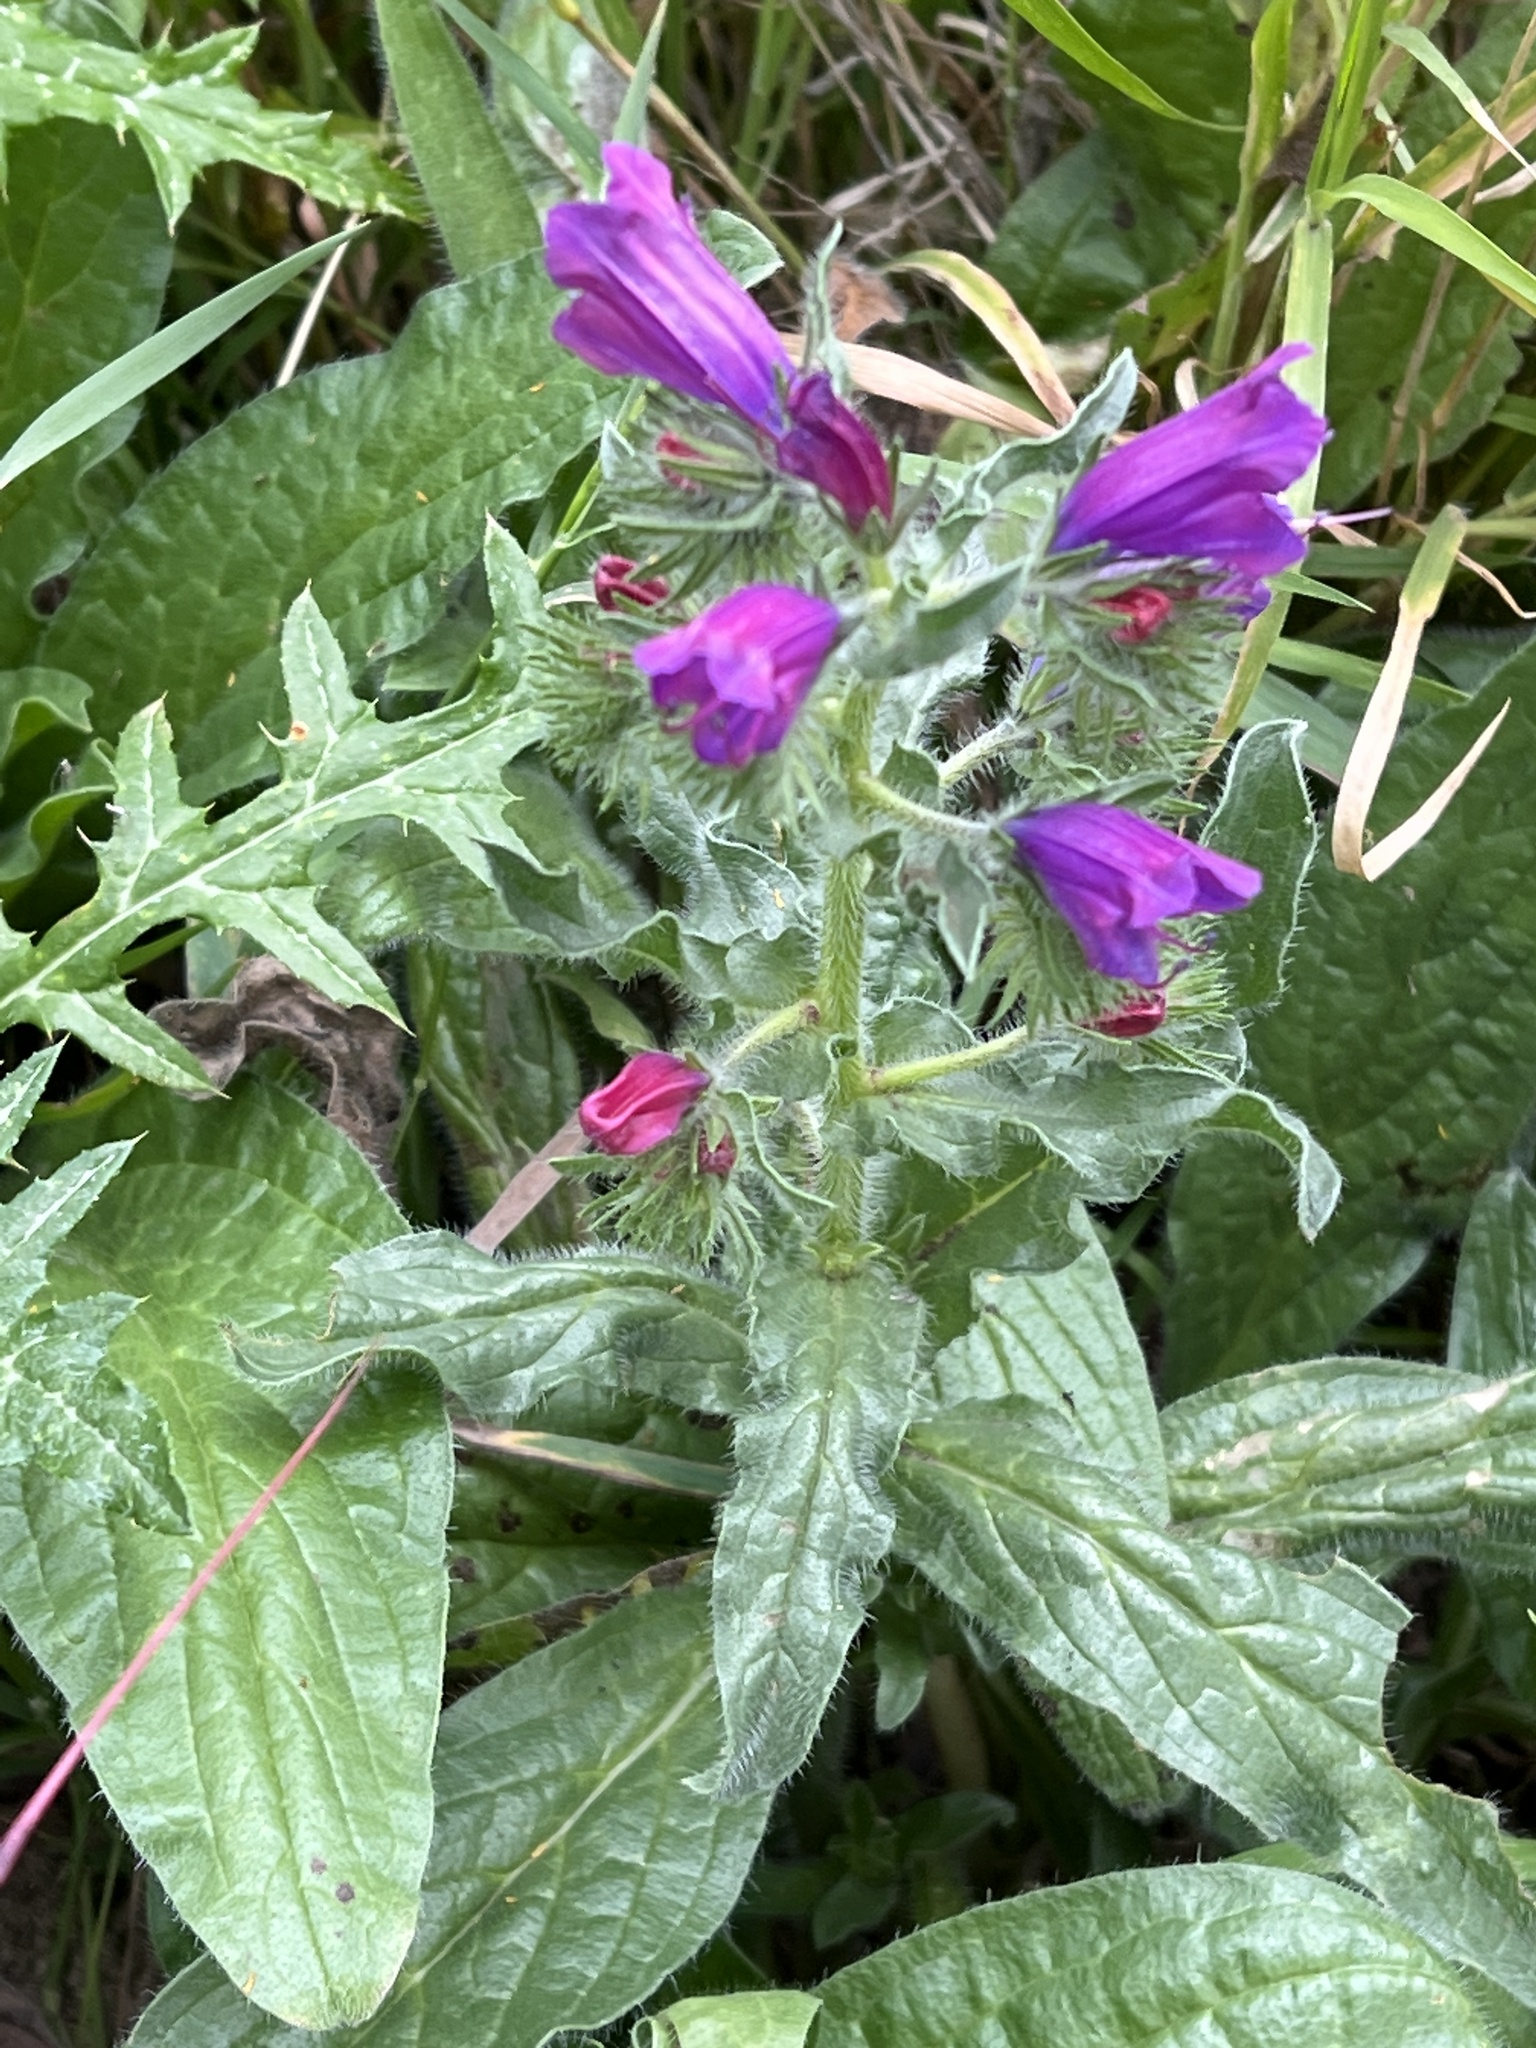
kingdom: Plantae
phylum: Tracheophyta
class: Magnoliopsida
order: Boraginales
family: Boraginaceae
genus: Echium
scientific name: Echium plantagineum
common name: Purple viper's-bugloss
